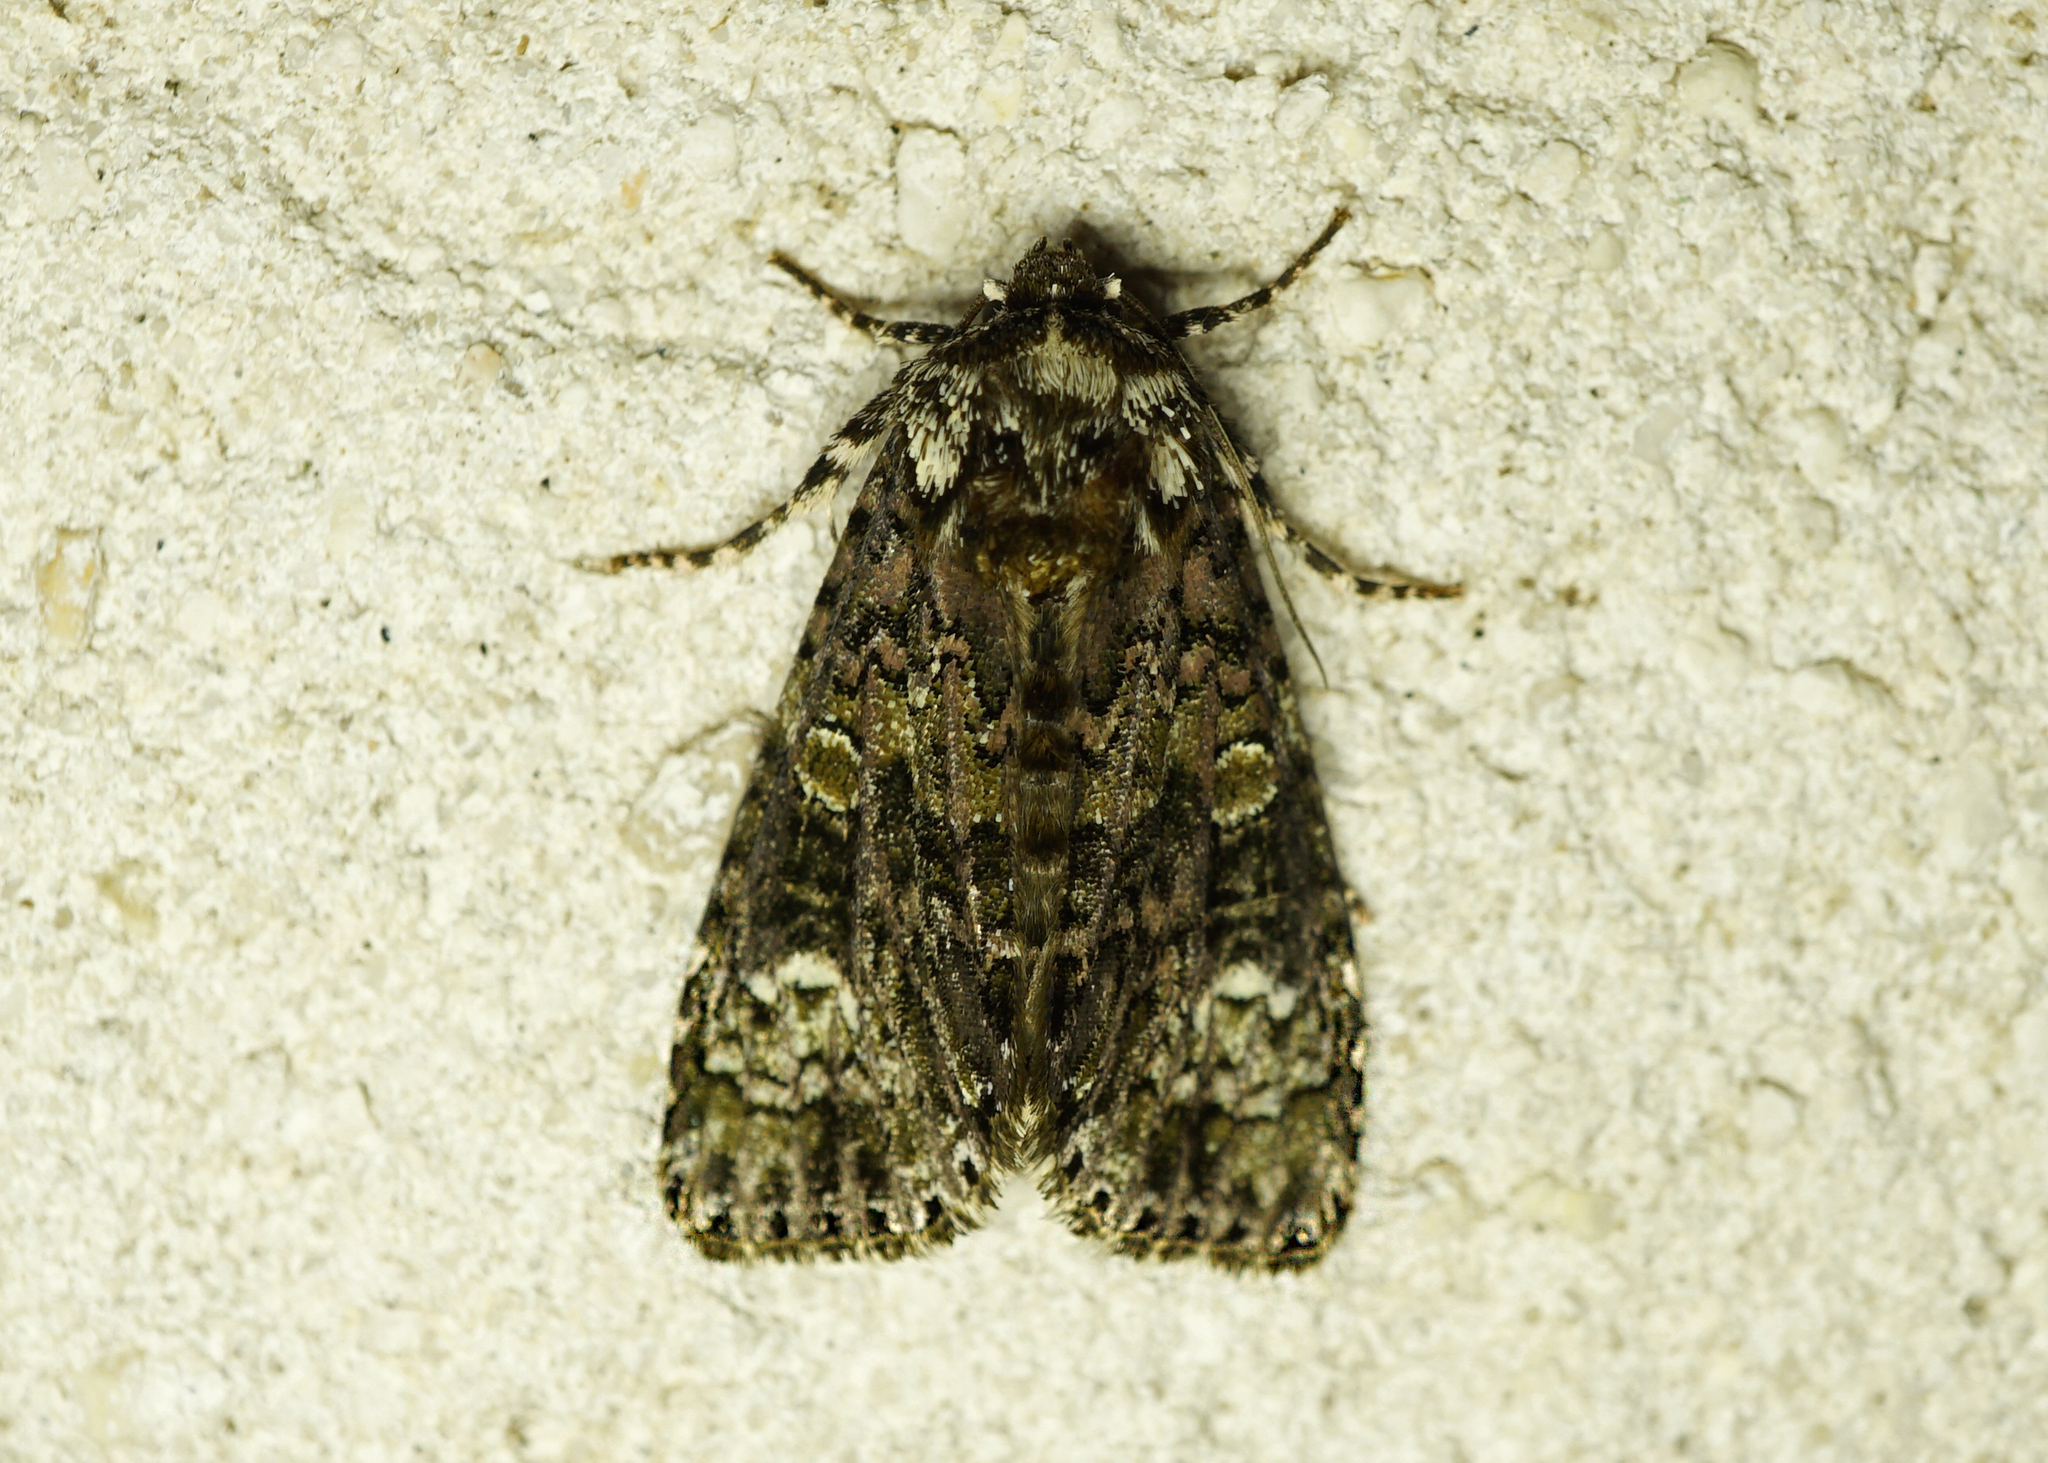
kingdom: Animalia
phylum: Arthropoda
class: Insecta
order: Lepidoptera
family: Noctuidae
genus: Craniophora
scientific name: Craniophora ligustri
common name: Coronet
